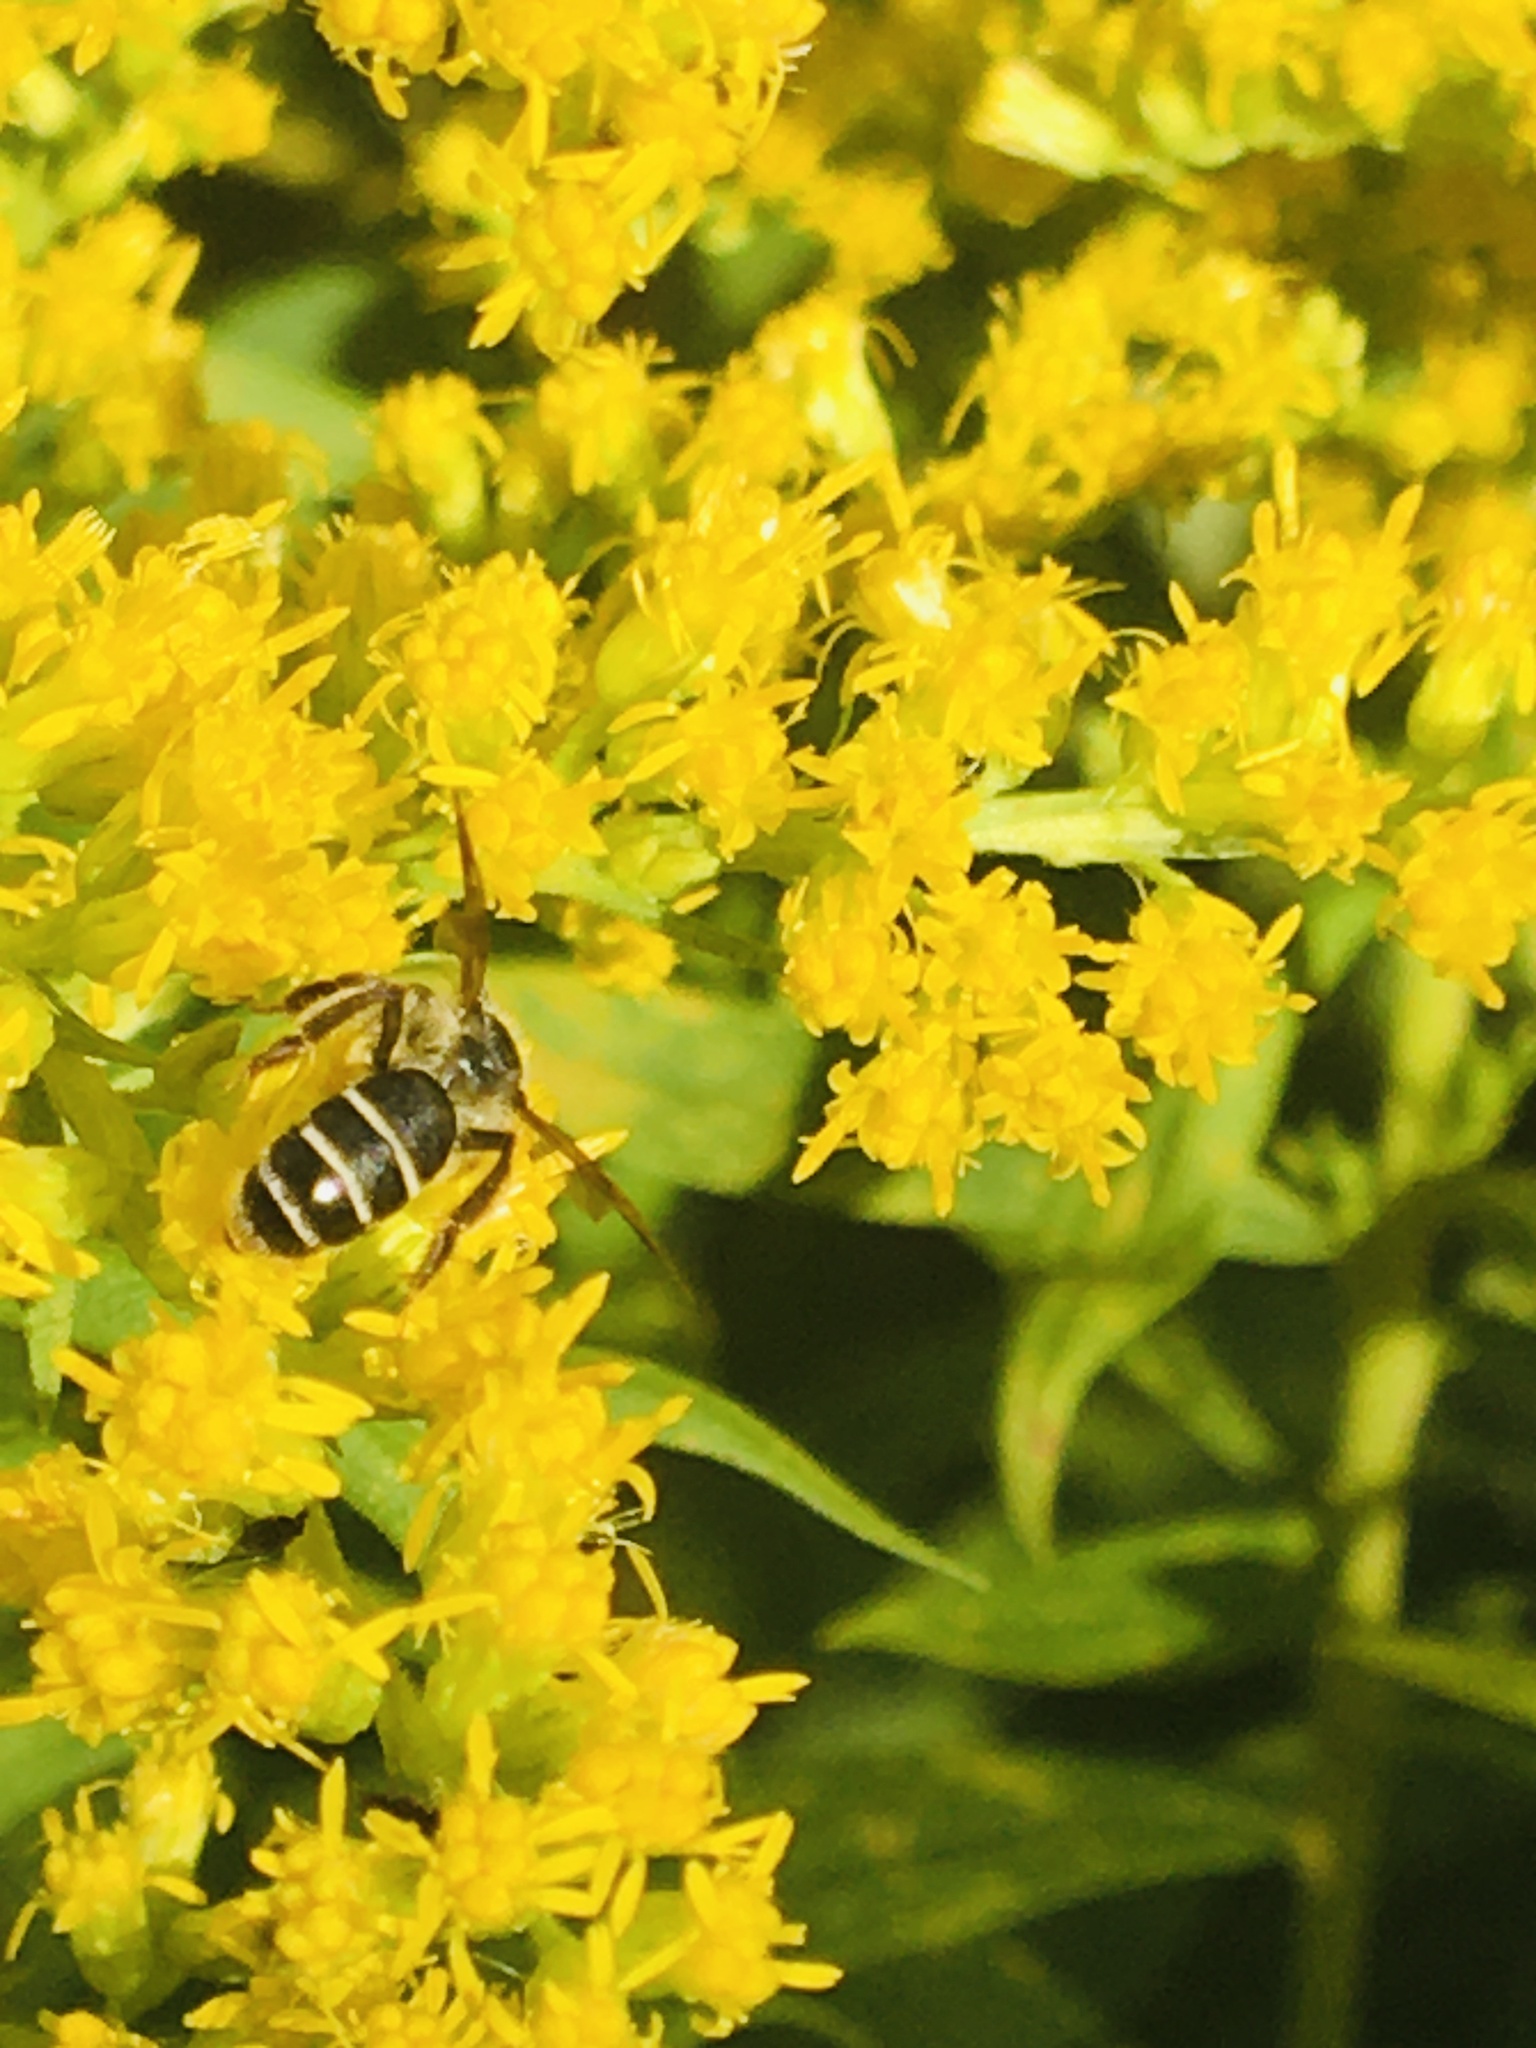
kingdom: Animalia
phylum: Arthropoda
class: Insecta
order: Hymenoptera
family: Andrenidae
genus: Andrena
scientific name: Andrena nubecula
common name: Cloudy-winged mining bee
